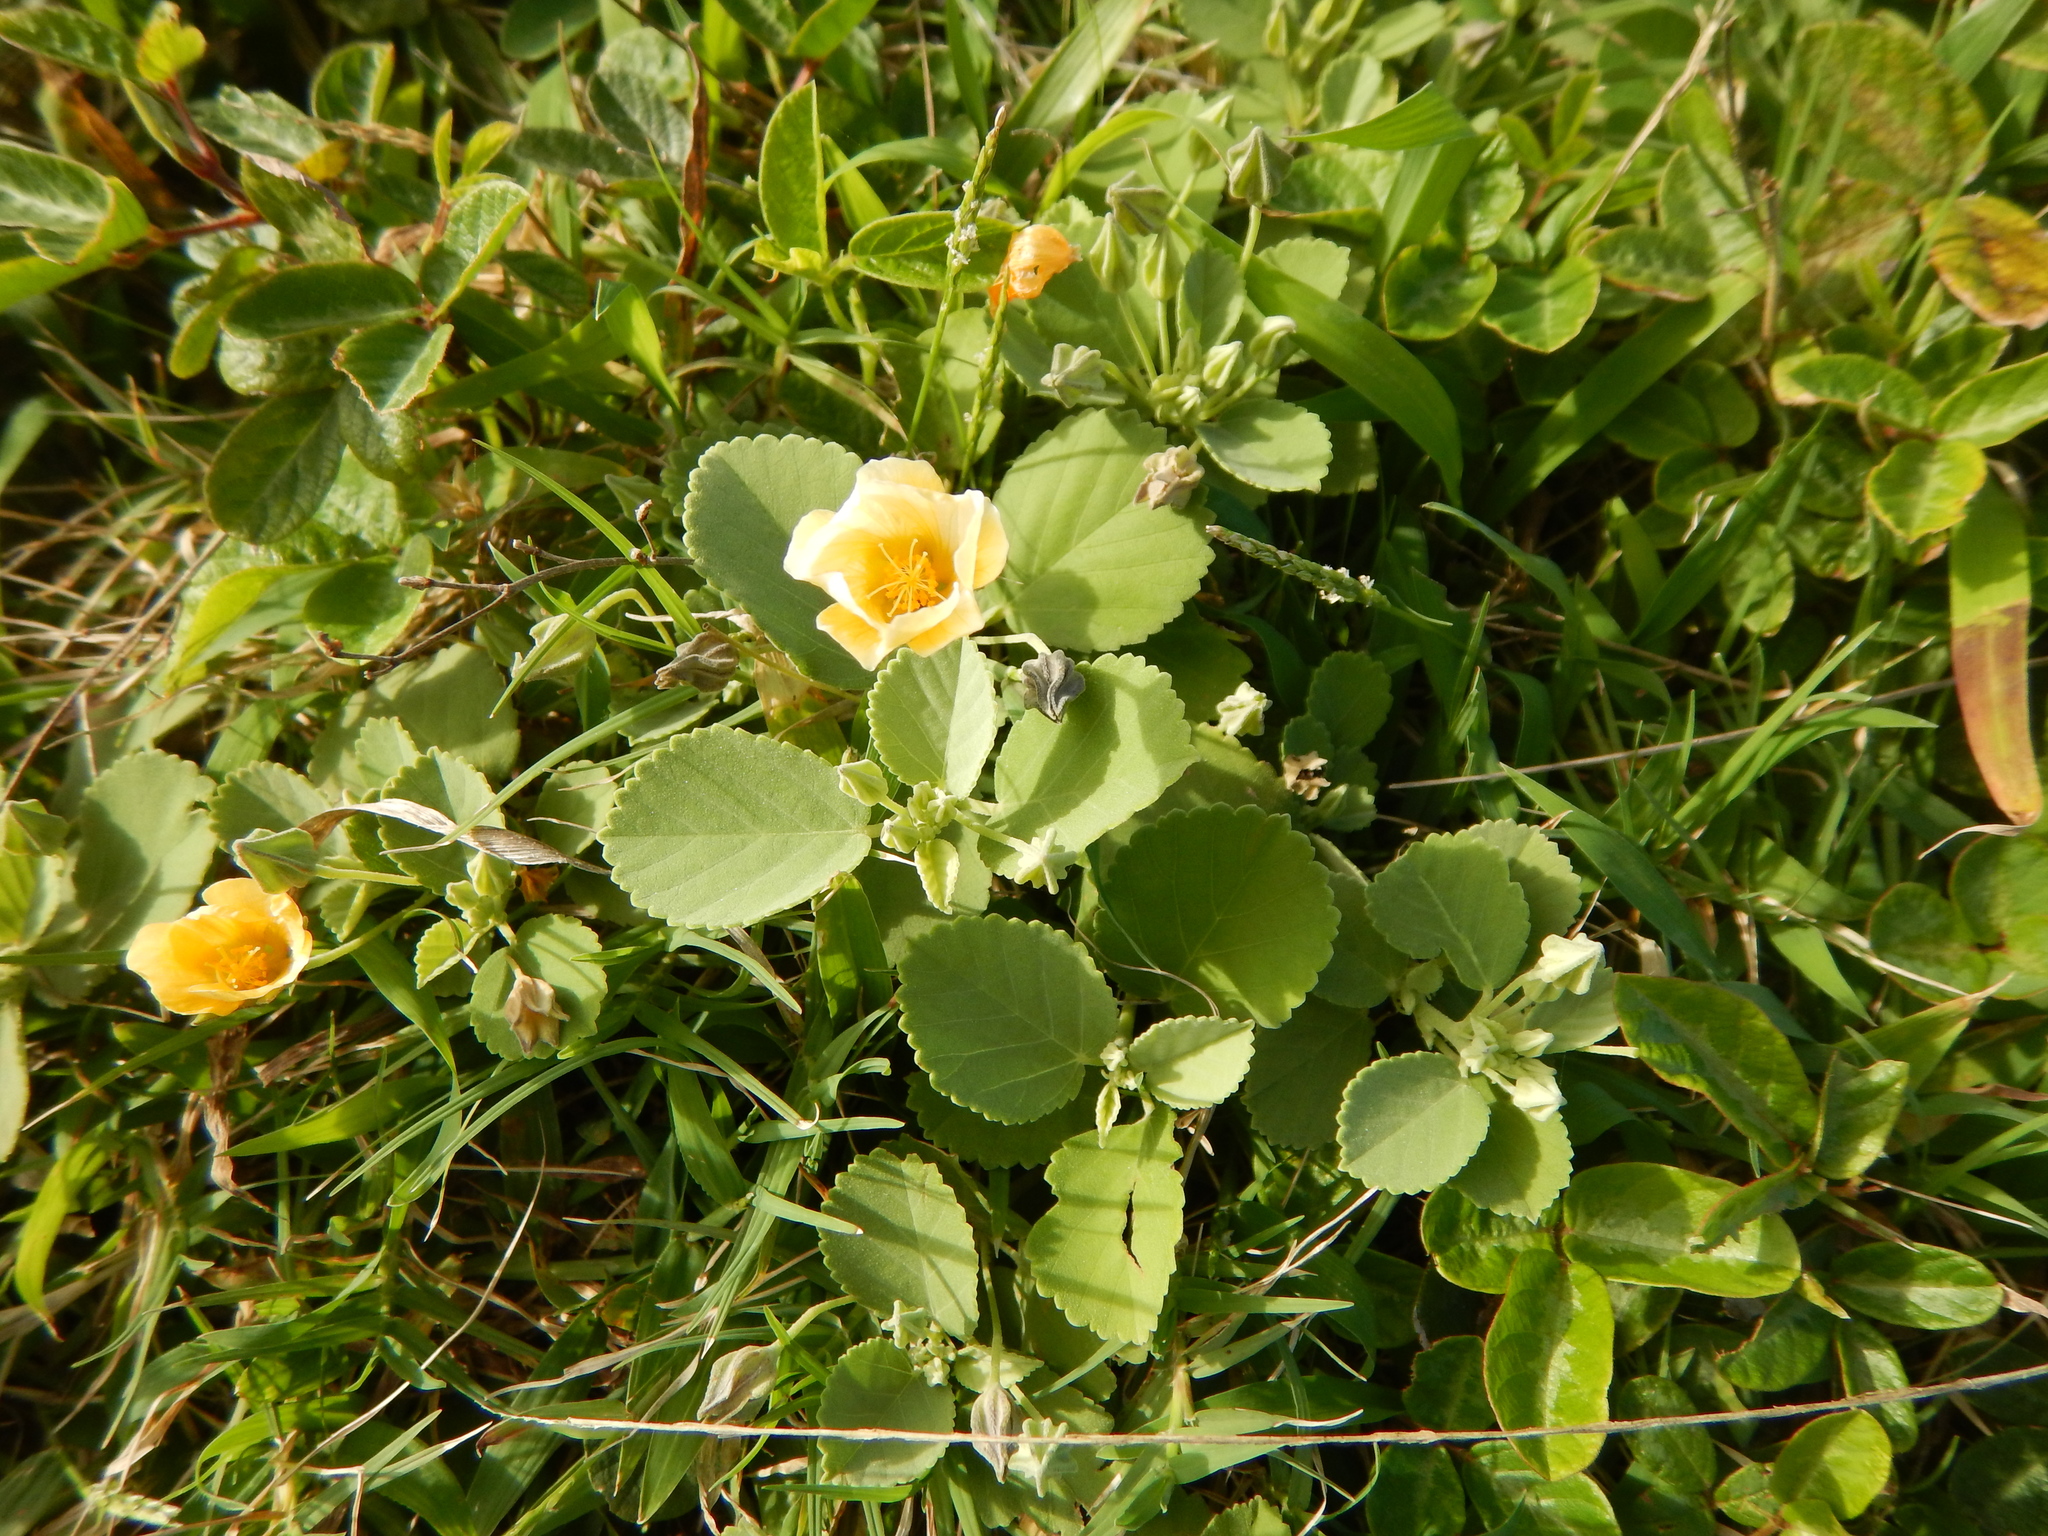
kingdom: Plantae
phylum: Tracheophyta
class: Magnoliopsida
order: Malvales
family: Malvaceae
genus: Sida
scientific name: Sida fallax
